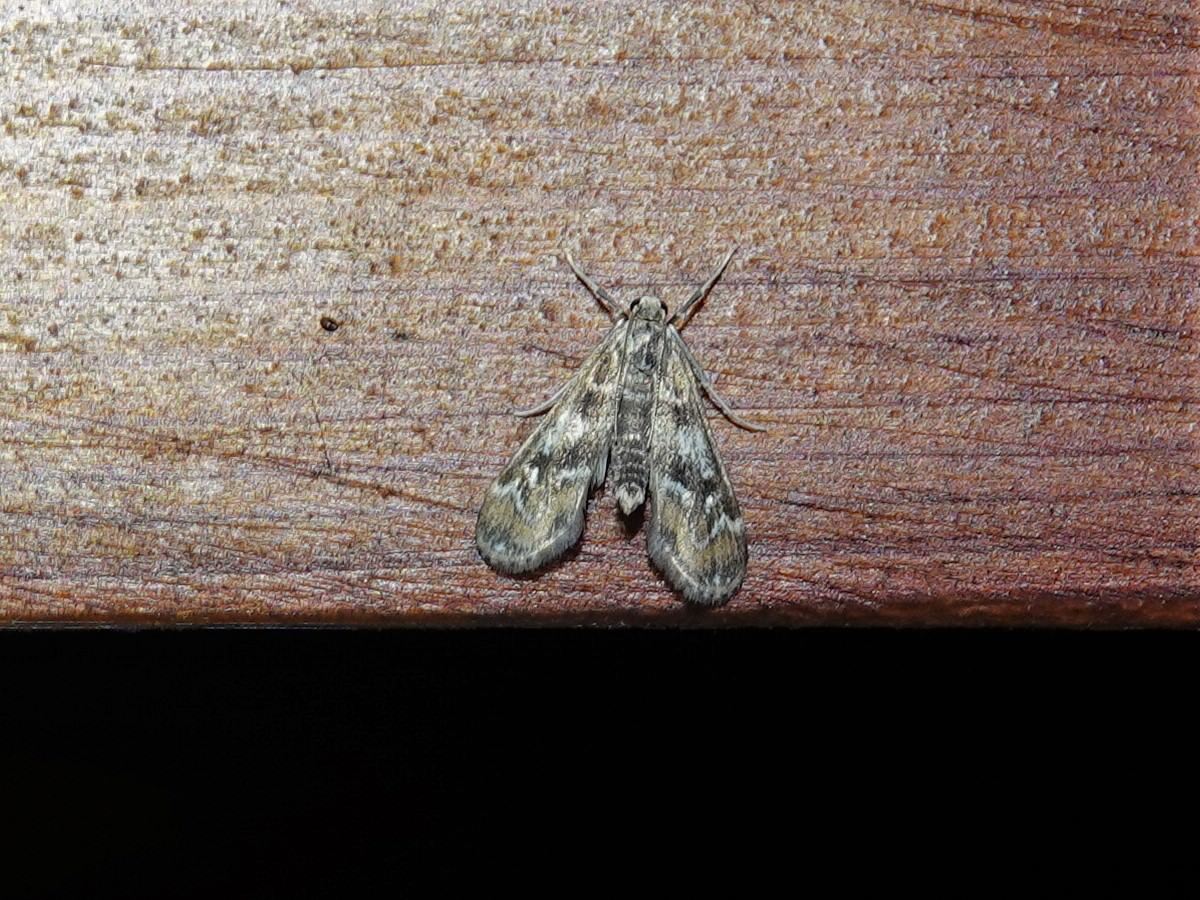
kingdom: Animalia
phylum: Arthropoda
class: Insecta
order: Lepidoptera
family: Crambidae
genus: Hygraula
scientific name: Hygraula nitens
